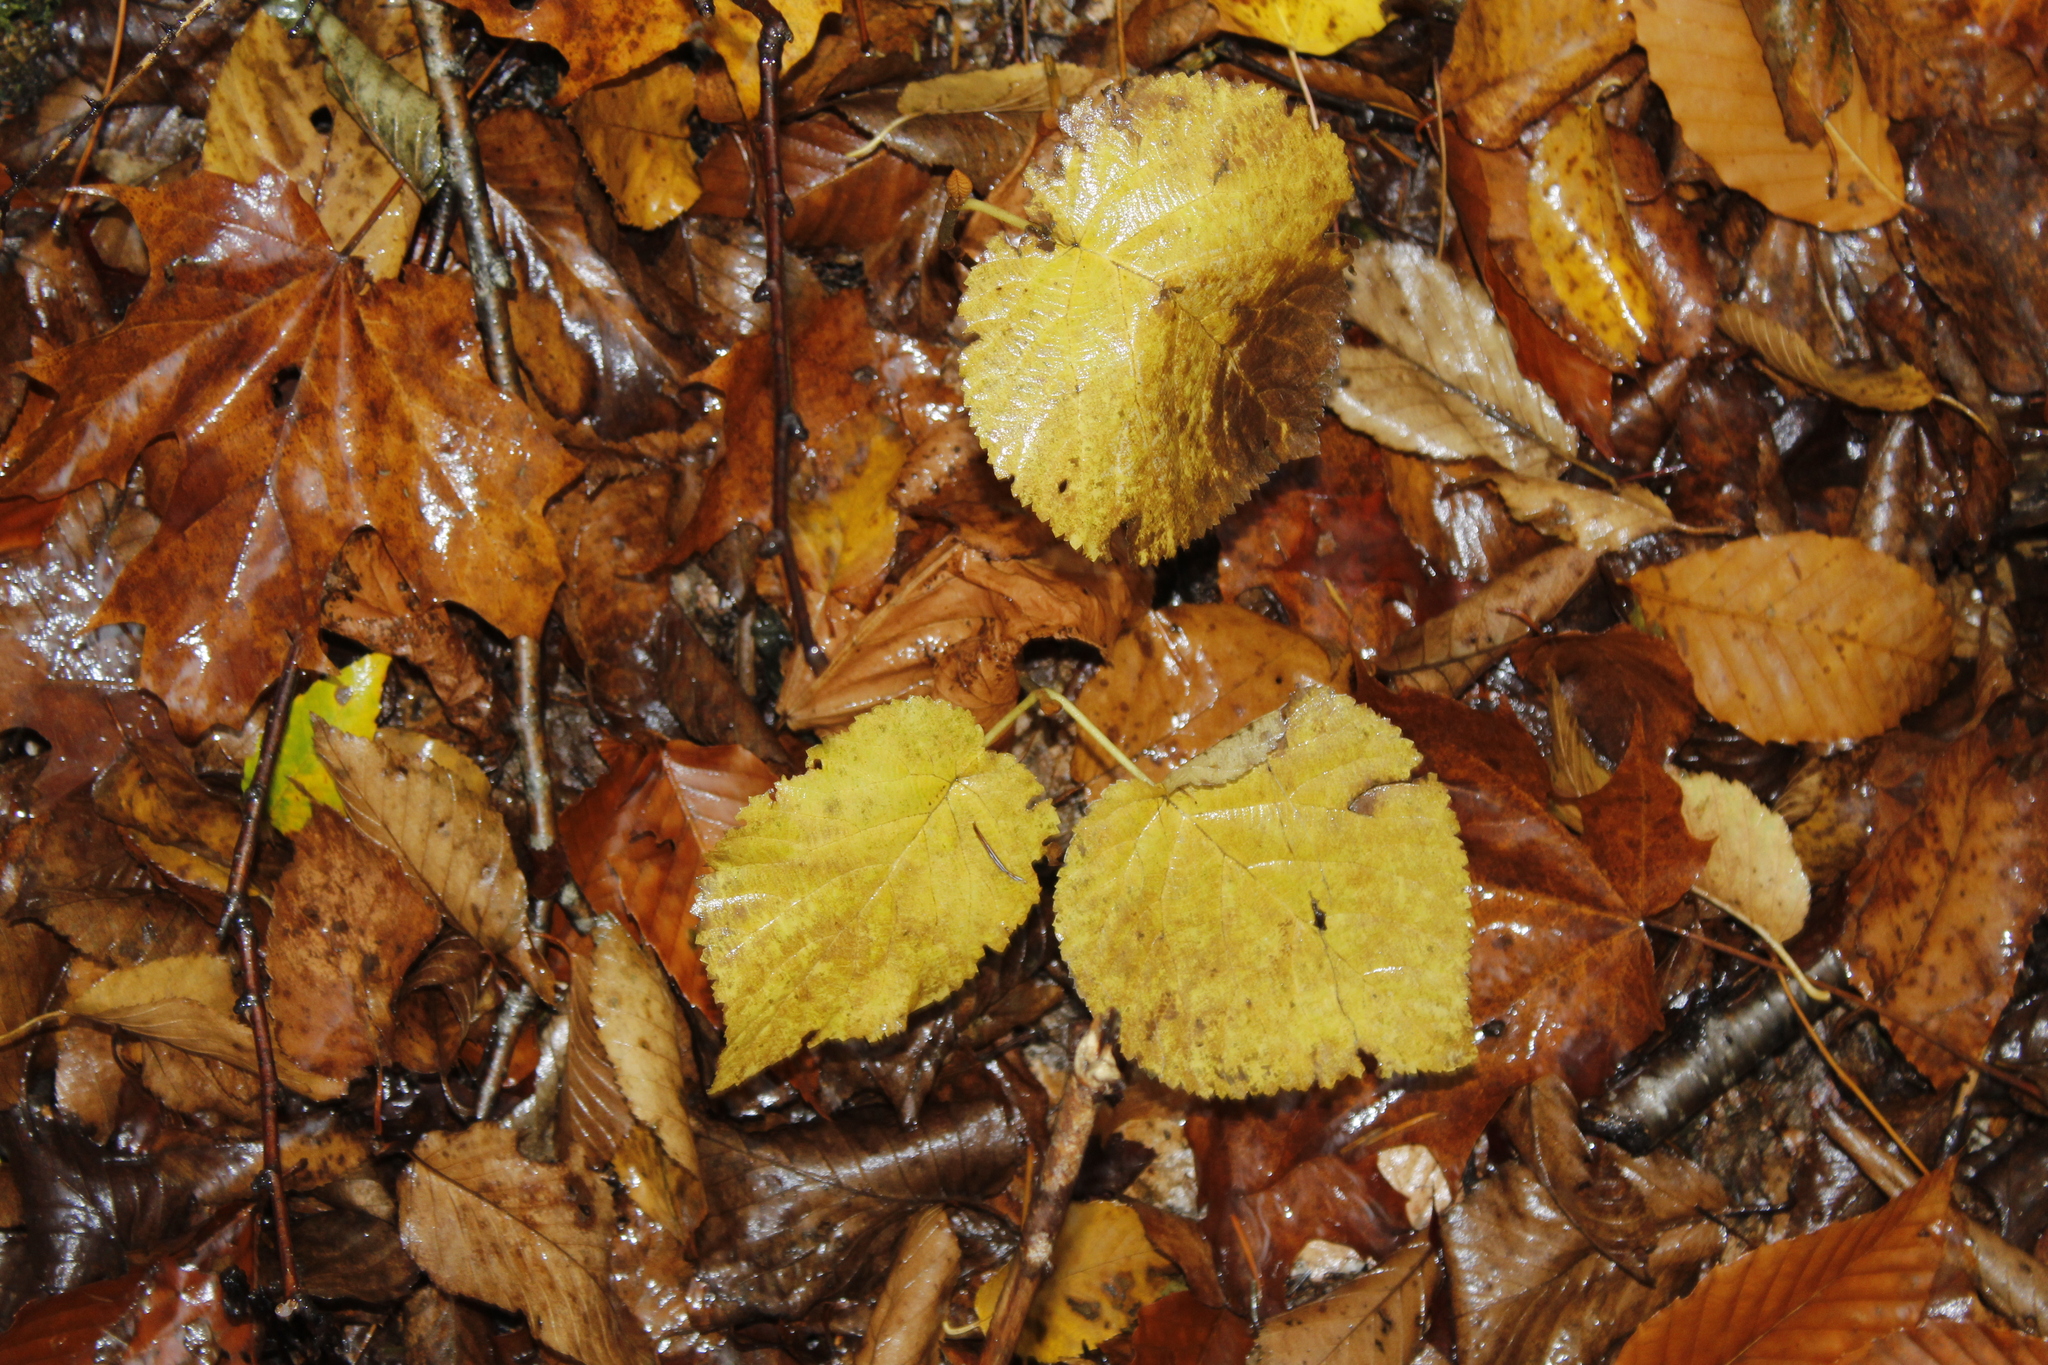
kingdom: Plantae
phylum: Tracheophyta
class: Magnoliopsida
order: Dipsacales
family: Viburnaceae
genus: Viburnum
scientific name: Viburnum lantanoides
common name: Hobblebush
